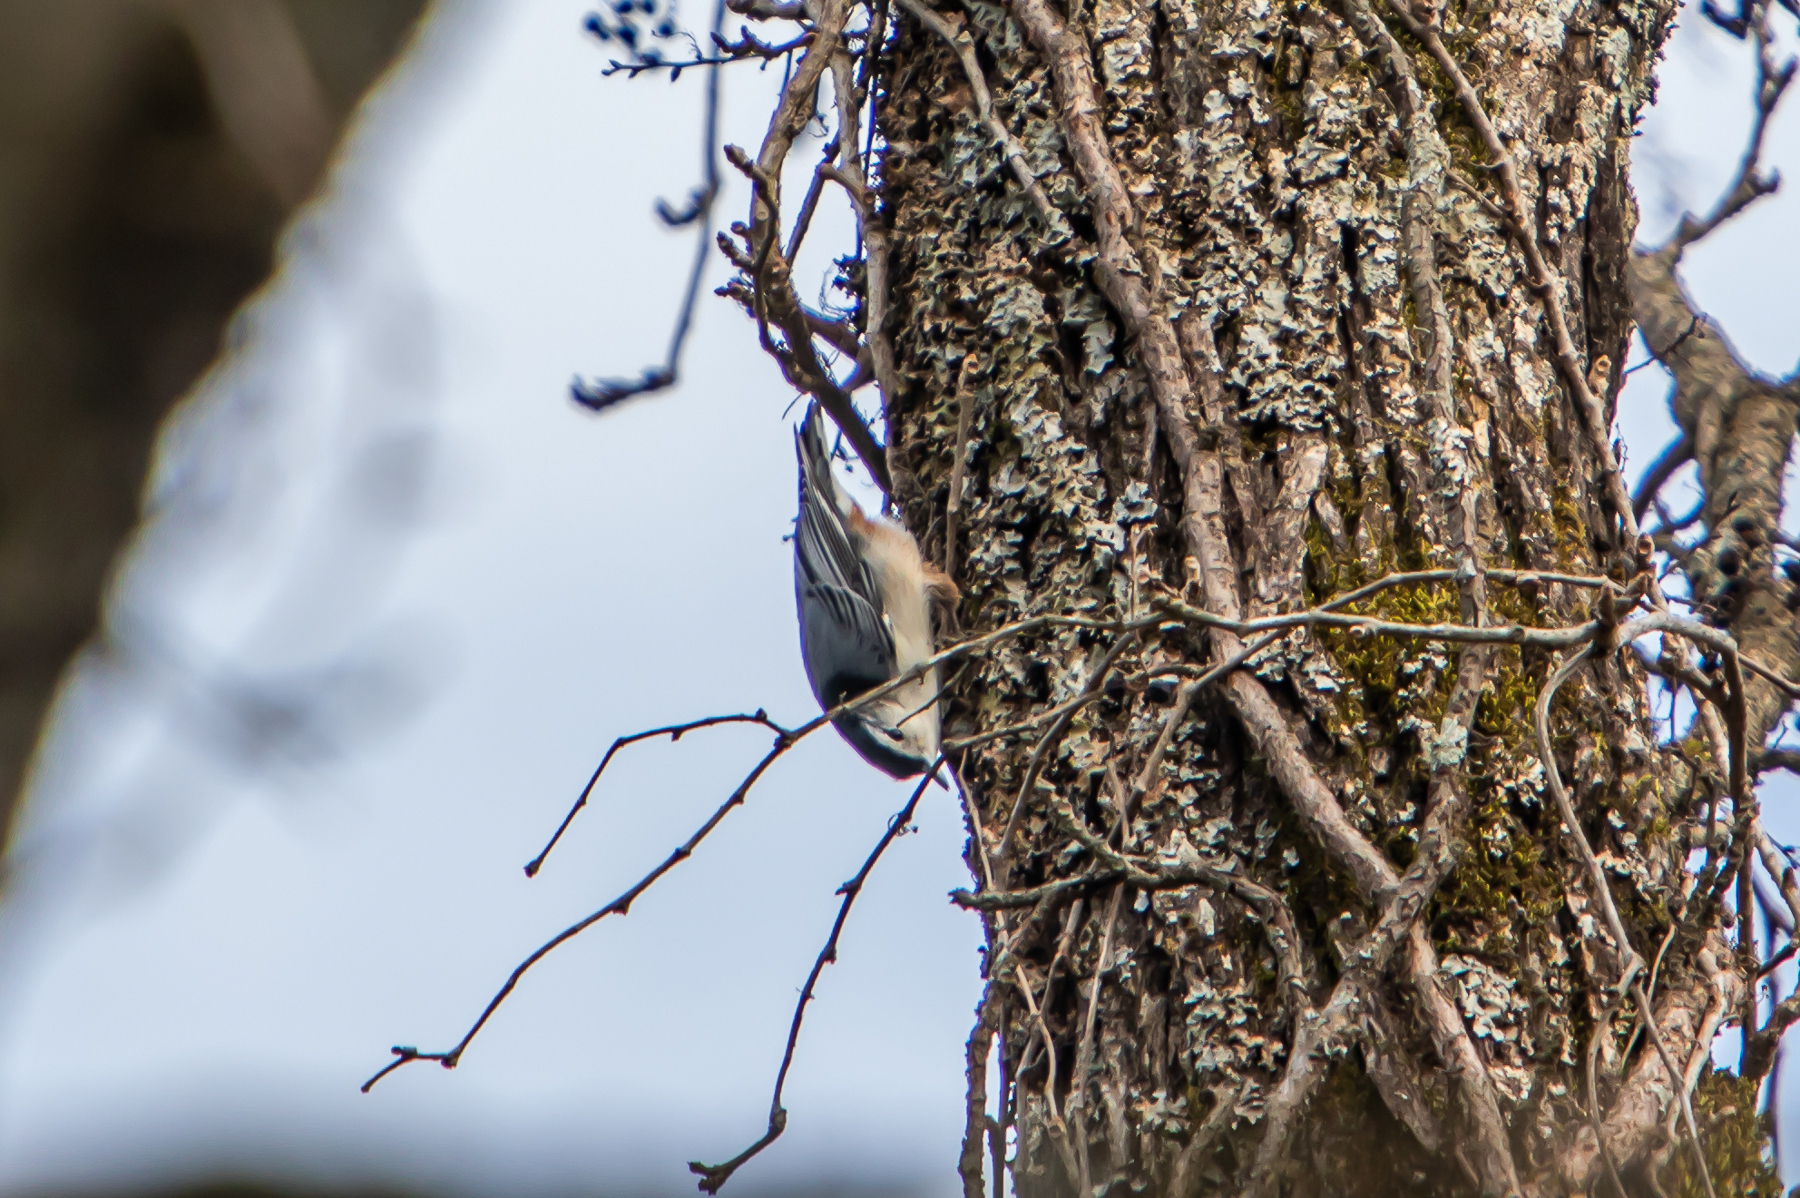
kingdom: Animalia
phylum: Chordata
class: Aves
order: Passeriformes
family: Sittidae
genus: Sitta
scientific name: Sitta carolinensis
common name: White-breasted nuthatch
